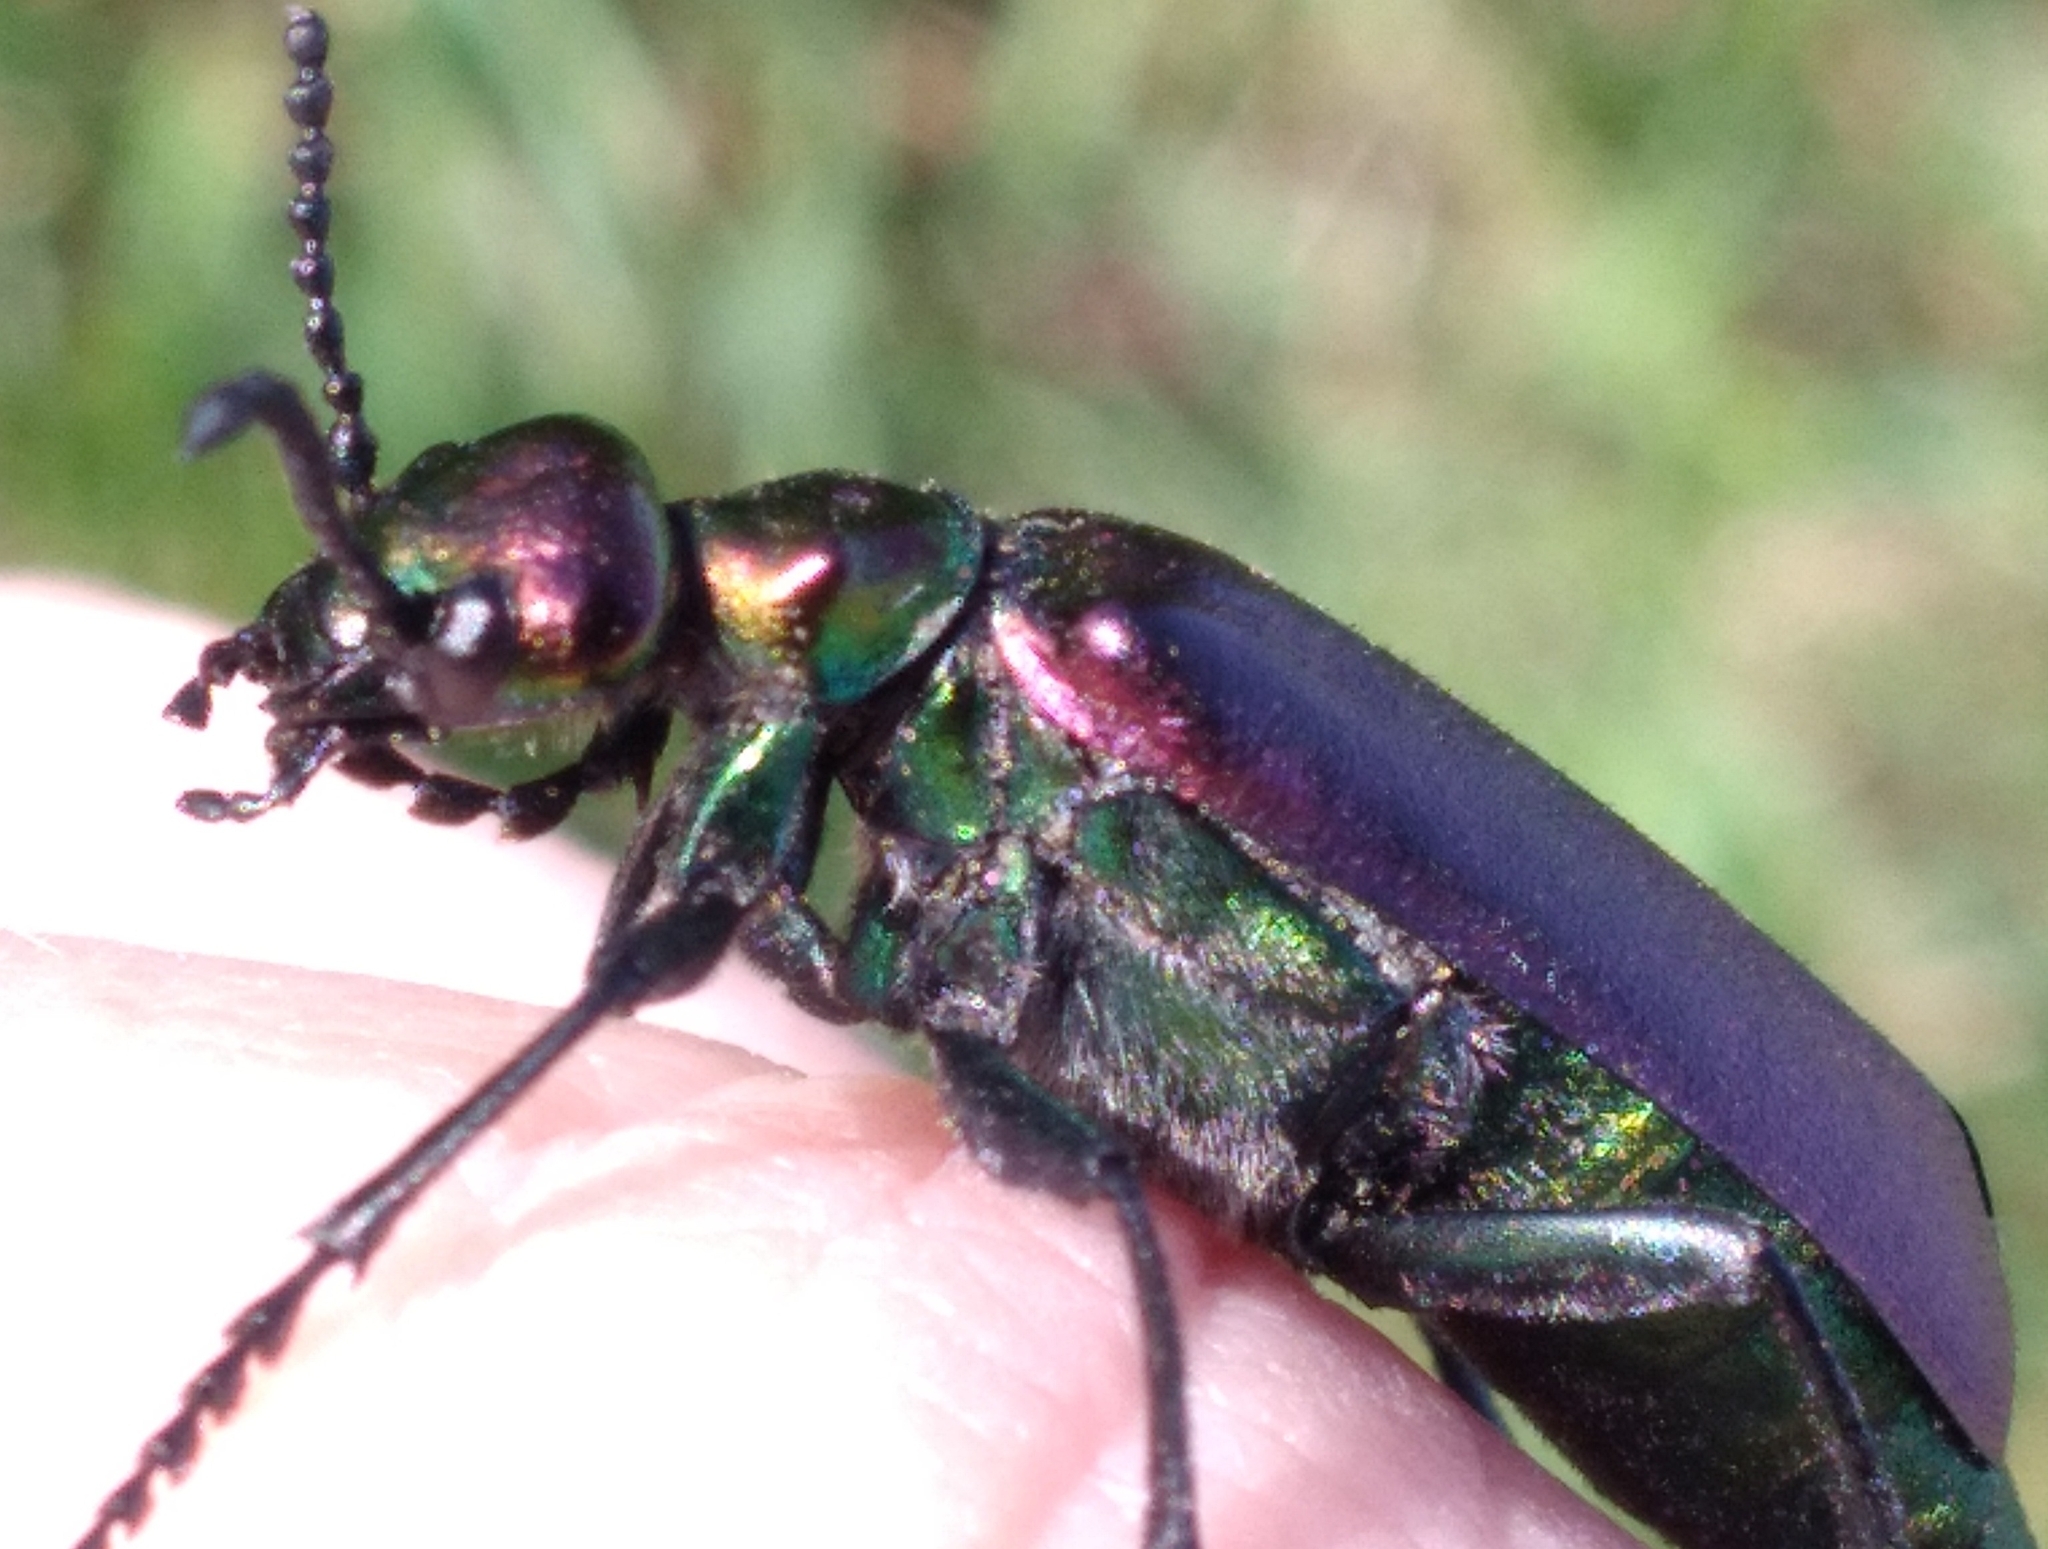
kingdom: Animalia
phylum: Arthropoda
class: Insecta
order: Coleoptera
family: Meloidae
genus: Lytta
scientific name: Lytta nuttallii
